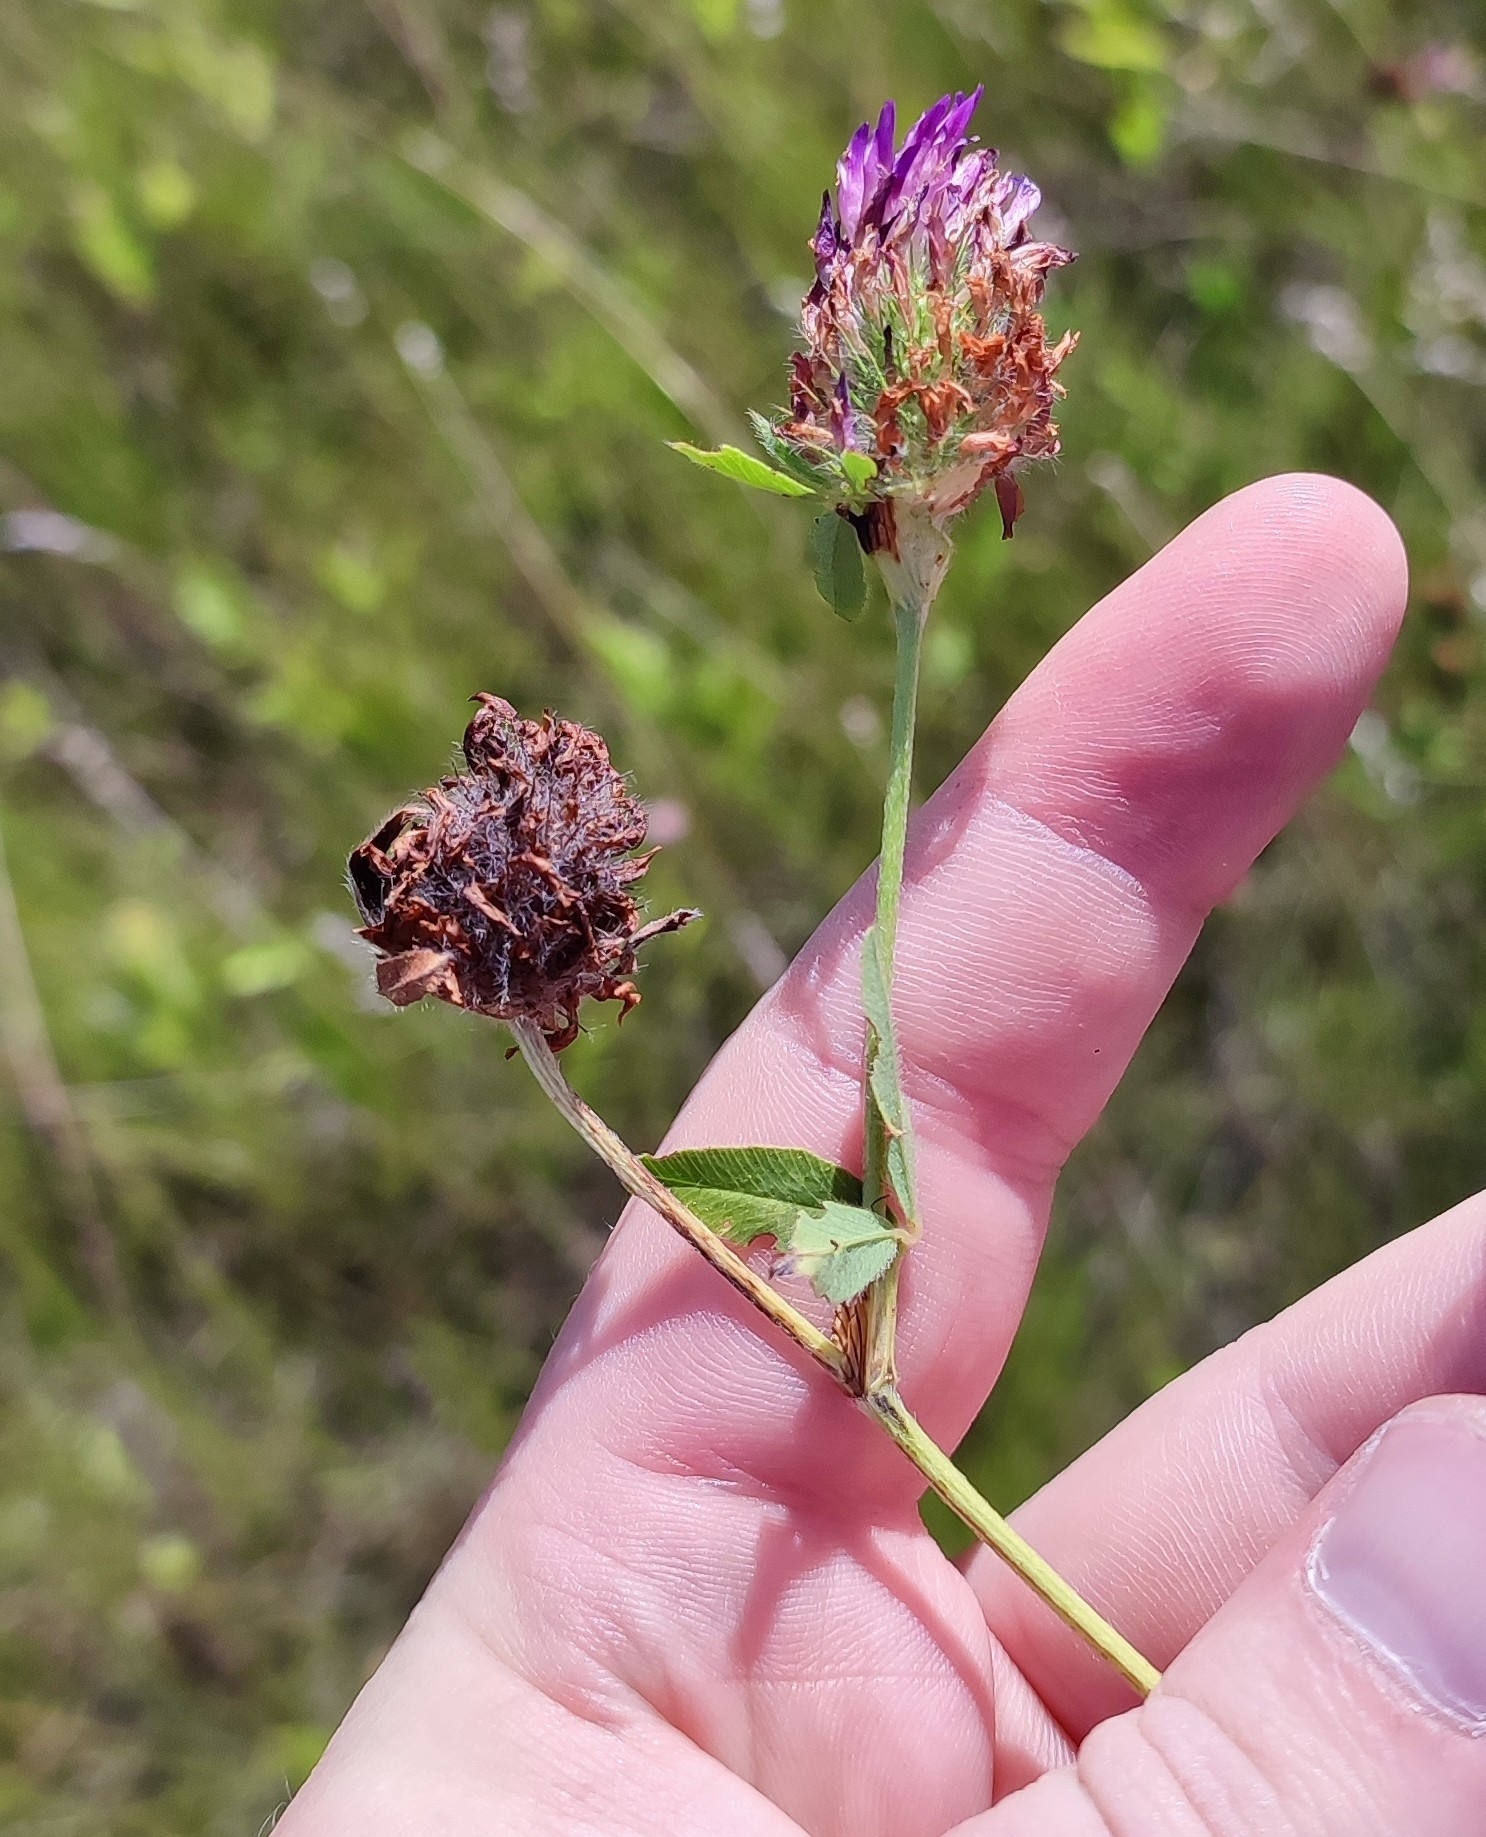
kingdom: Plantae
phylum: Tracheophyta
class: Magnoliopsida
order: Fabales
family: Fabaceae
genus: Trifolium
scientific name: Trifolium pratense
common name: Red clover
